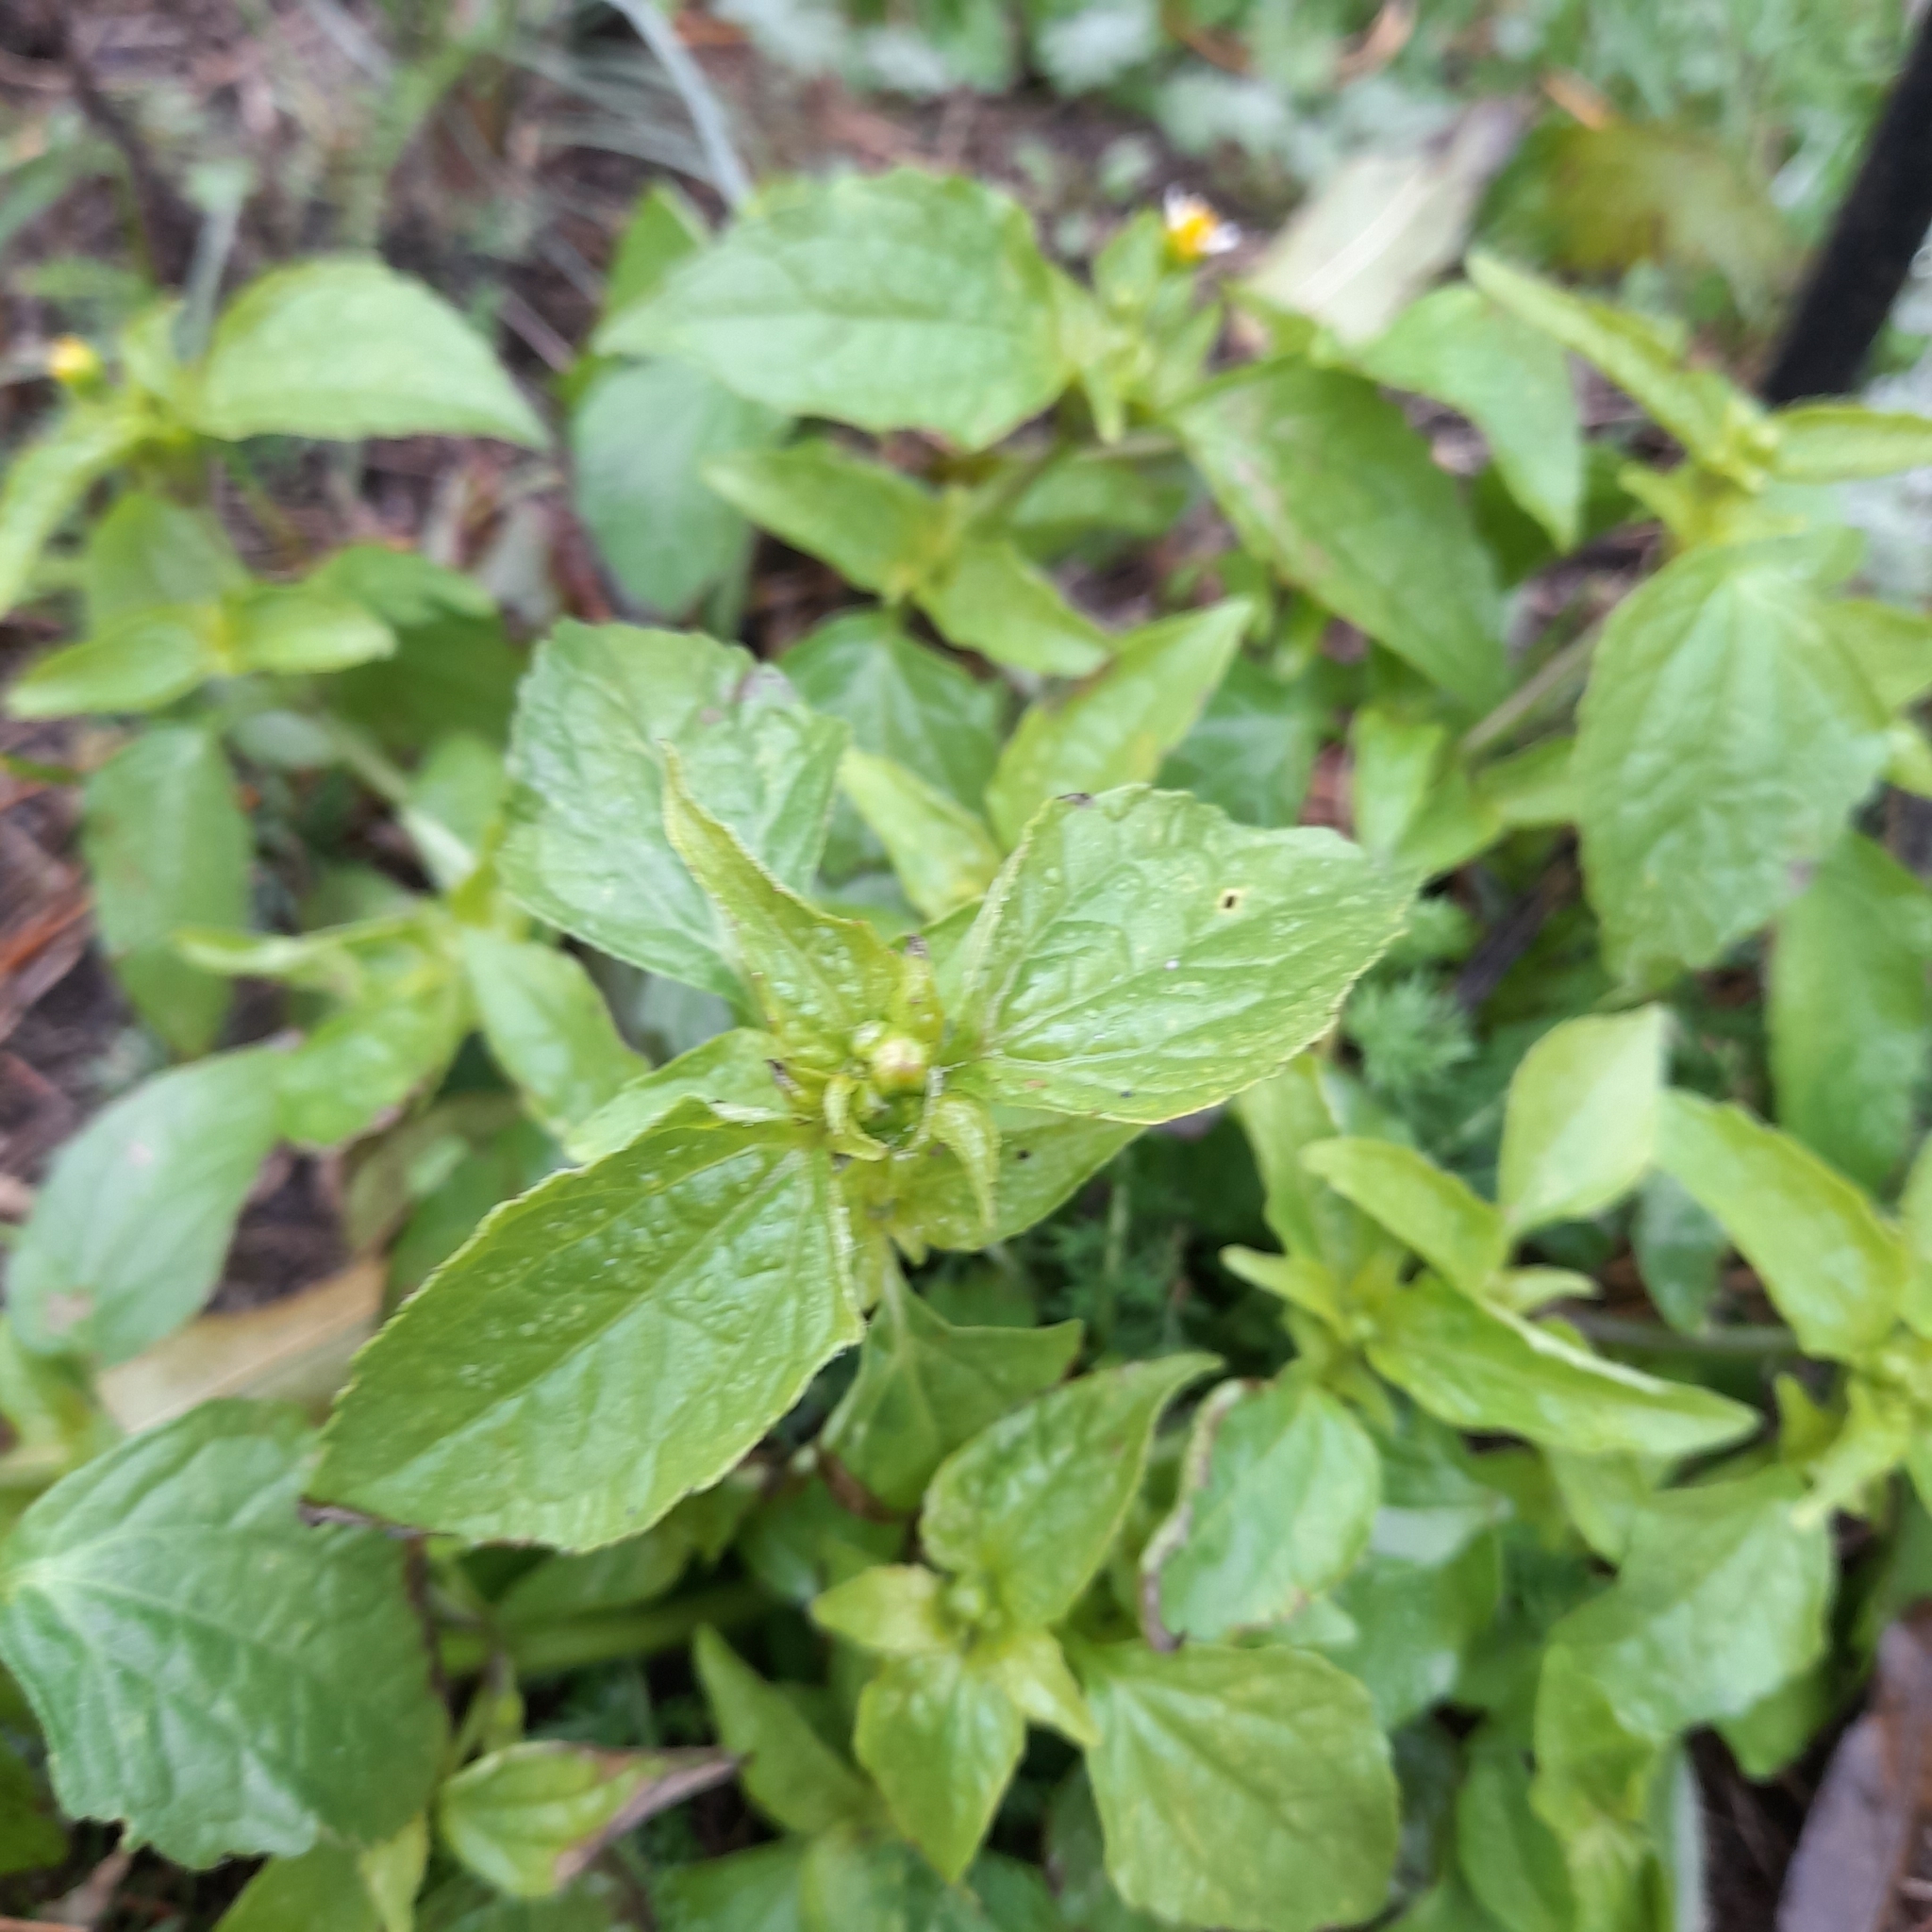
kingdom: Plantae
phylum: Tracheophyta
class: Magnoliopsida
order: Asterales
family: Asteraceae
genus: Galinsoga
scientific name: Galinsoga parviflora
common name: Gallant soldier
